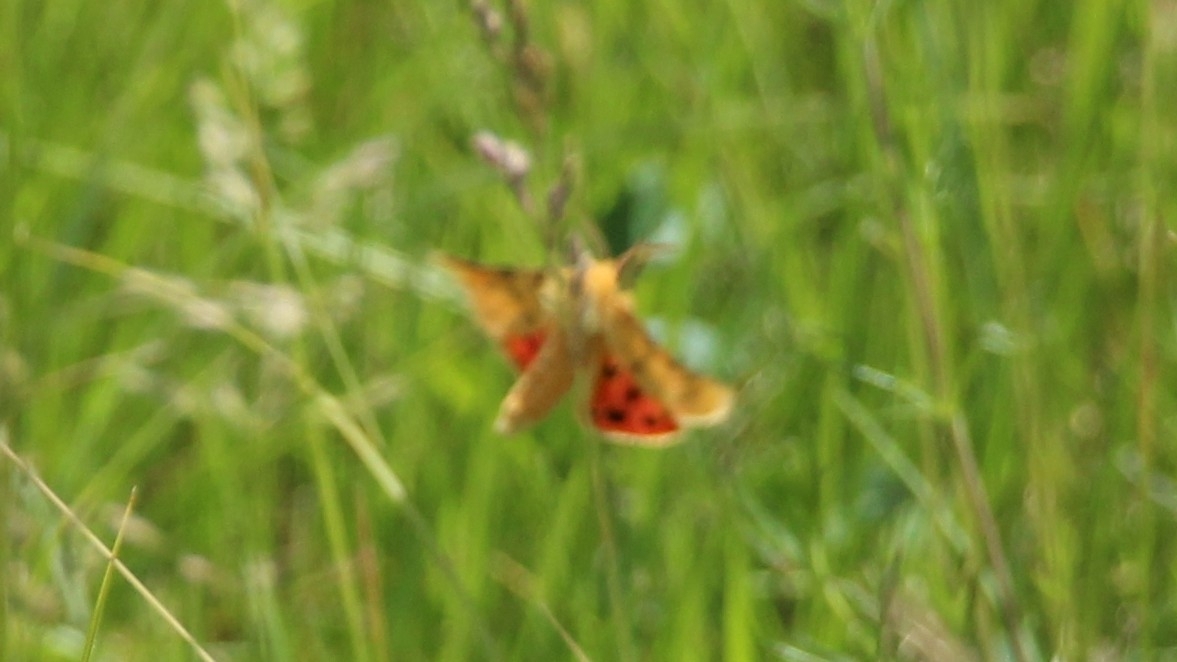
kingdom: Animalia
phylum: Arthropoda
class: Insecta
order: Lepidoptera
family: Erebidae
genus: Rhyparia
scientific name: Rhyparia purpurata
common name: Purple tiger
